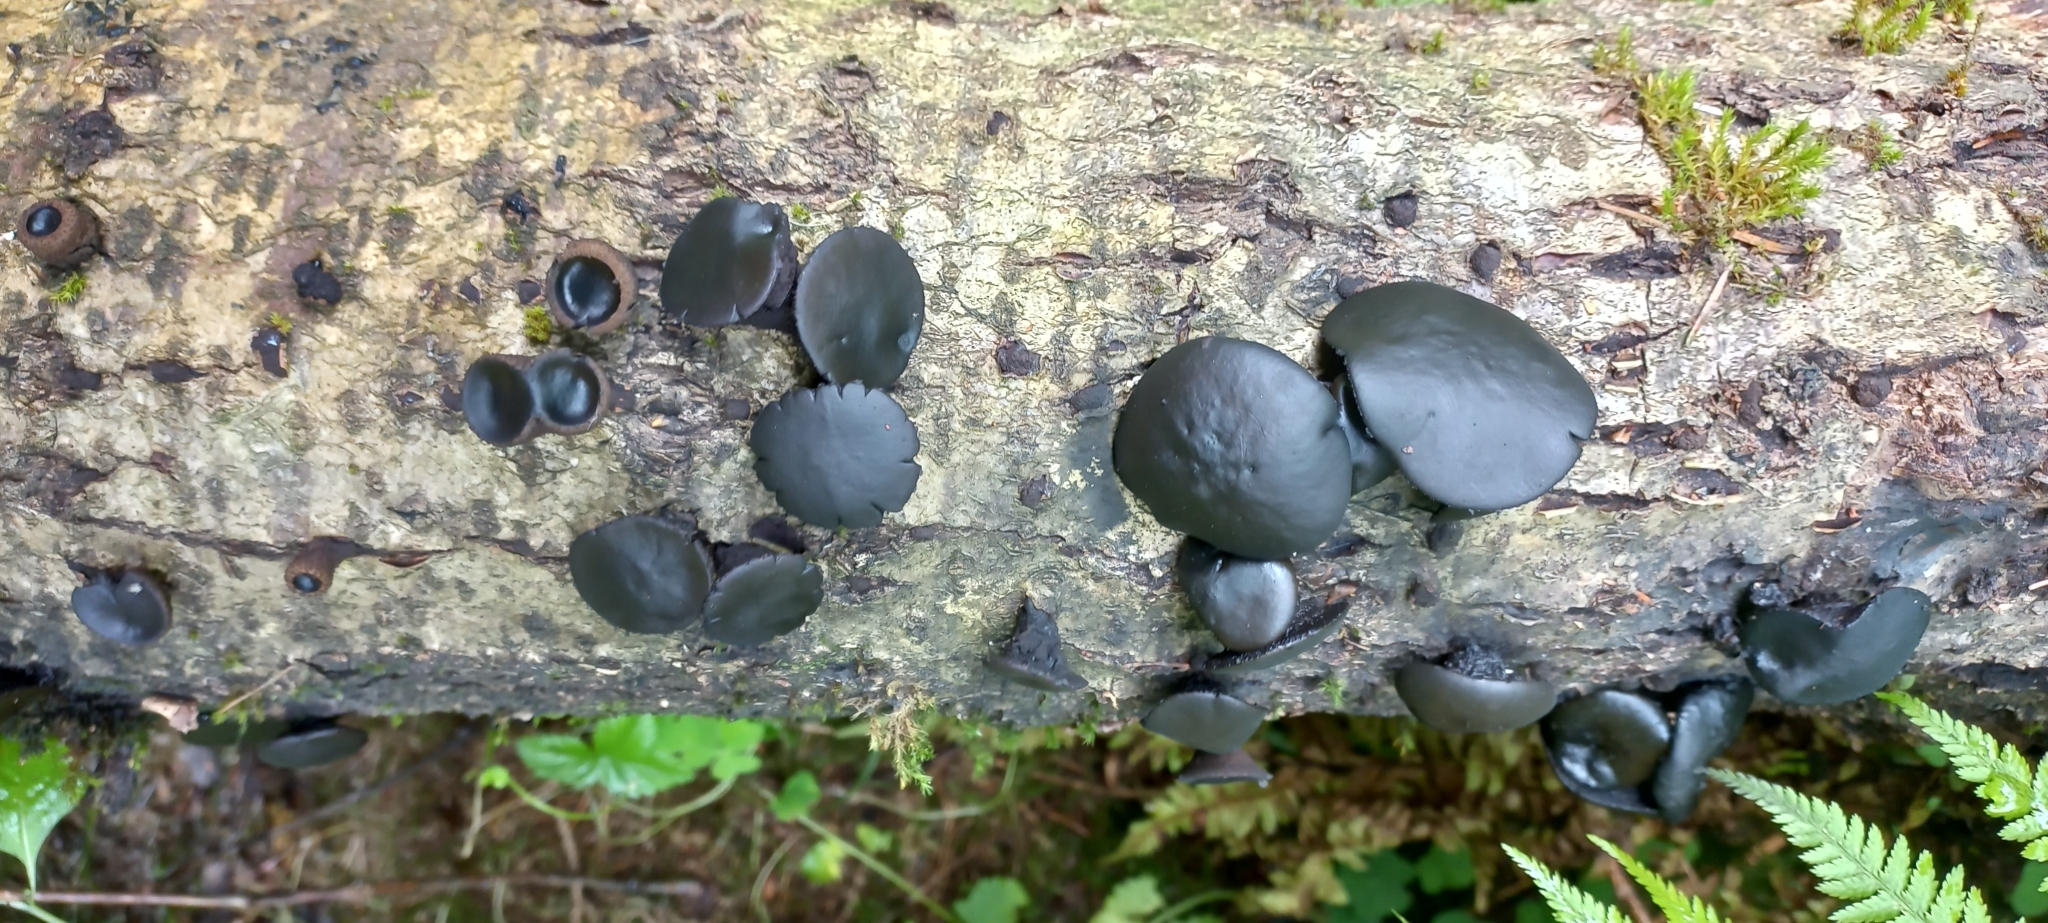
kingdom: Fungi
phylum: Ascomycota
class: Leotiomycetes
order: Phacidiales
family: Phacidiaceae
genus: Bulgaria
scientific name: Bulgaria inquinans
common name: Black bulgar
